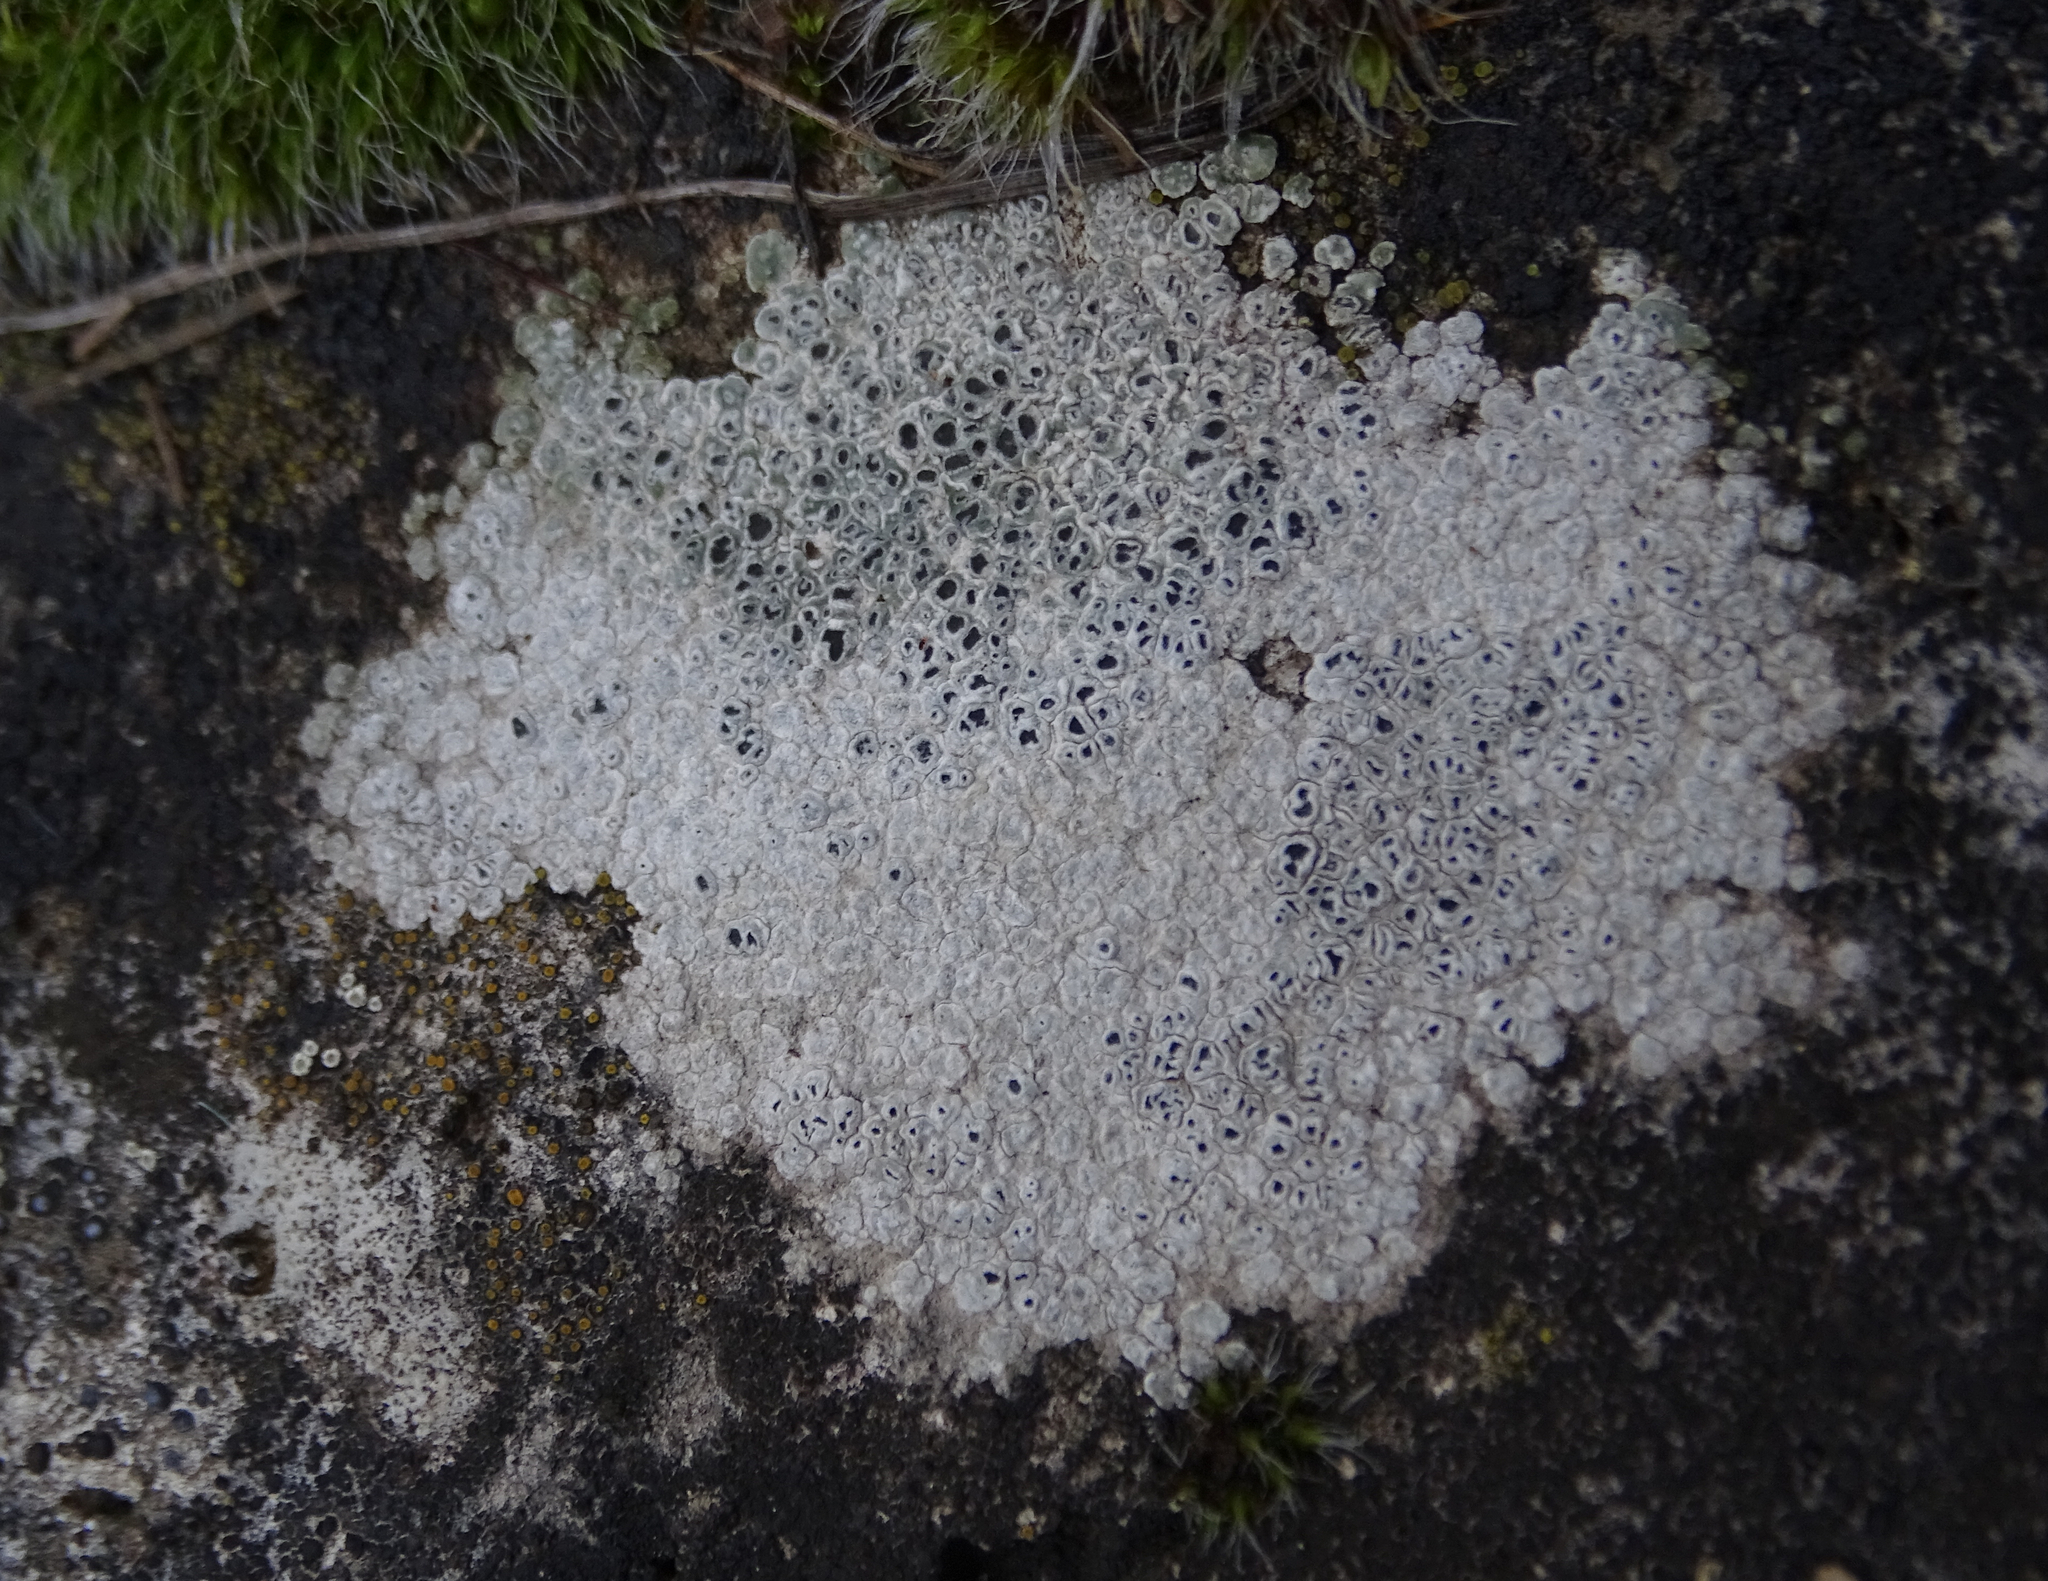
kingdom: Fungi
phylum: Ascomycota
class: Lecanoromycetes
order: Pertusariales
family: Megasporaceae
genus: Circinaria
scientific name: Circinaria contorta
